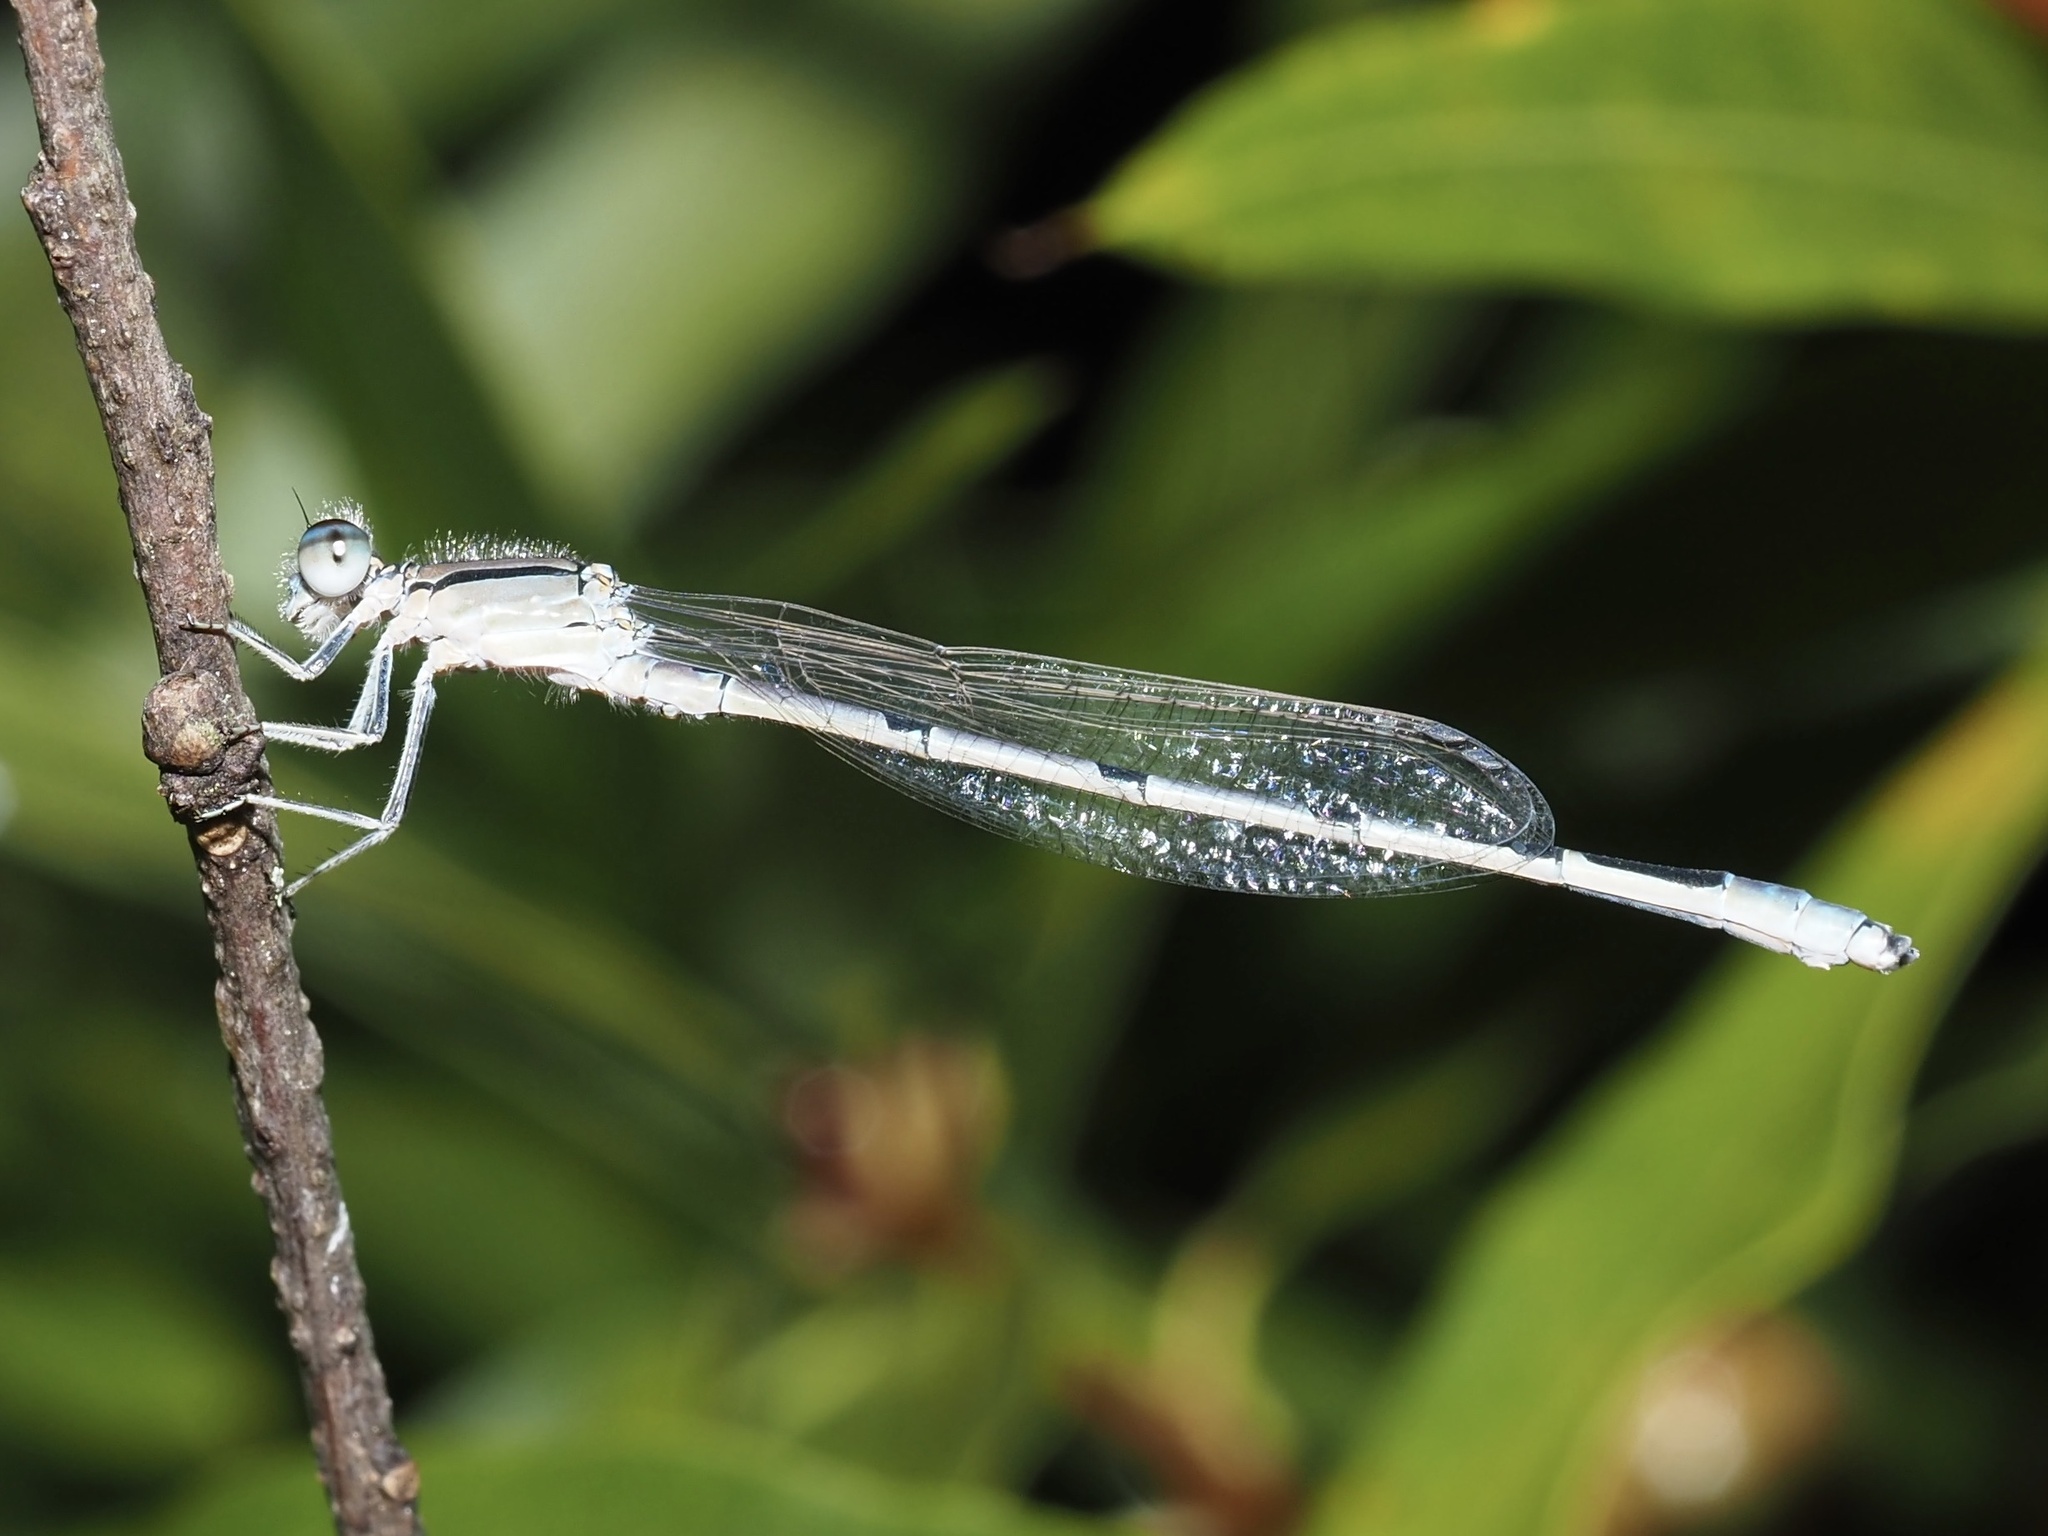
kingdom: Animalia
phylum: Arthropoda
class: Insecta
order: Odonata
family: Coenagrionidae
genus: Enallagma
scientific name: Enallagma civile
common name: Damselfly
